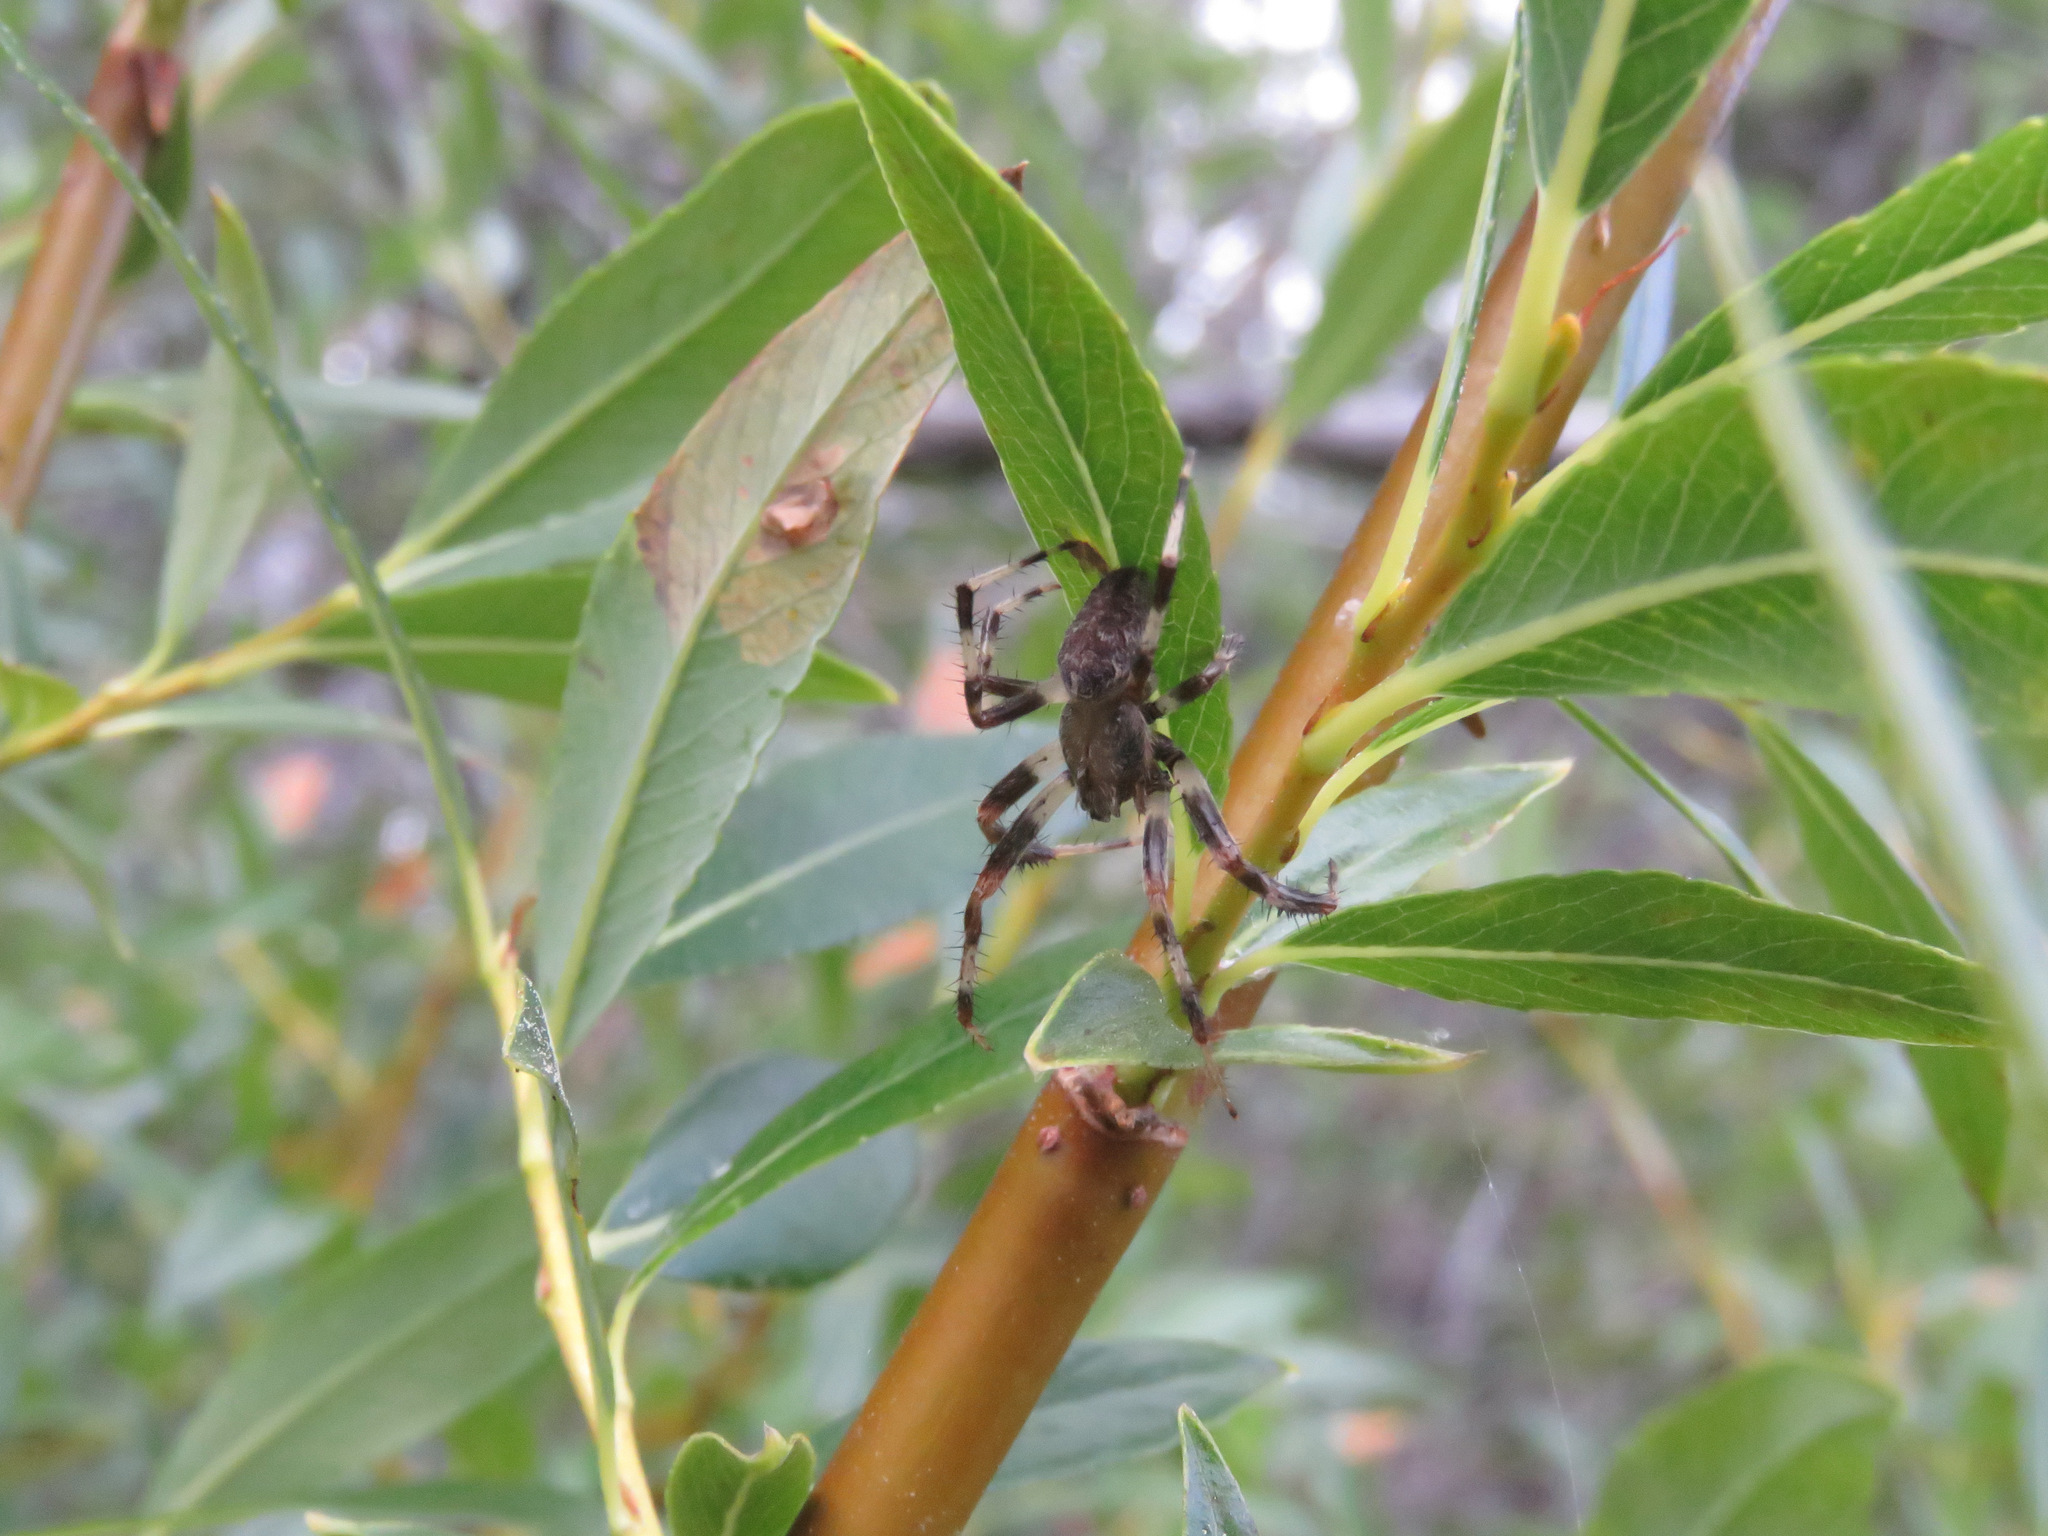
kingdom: Animalia
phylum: Arthropoda
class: Arachnida
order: Araneae
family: Araneidae
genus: Araneus
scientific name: Araneus marmoreus
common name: Marbled orbweaver
